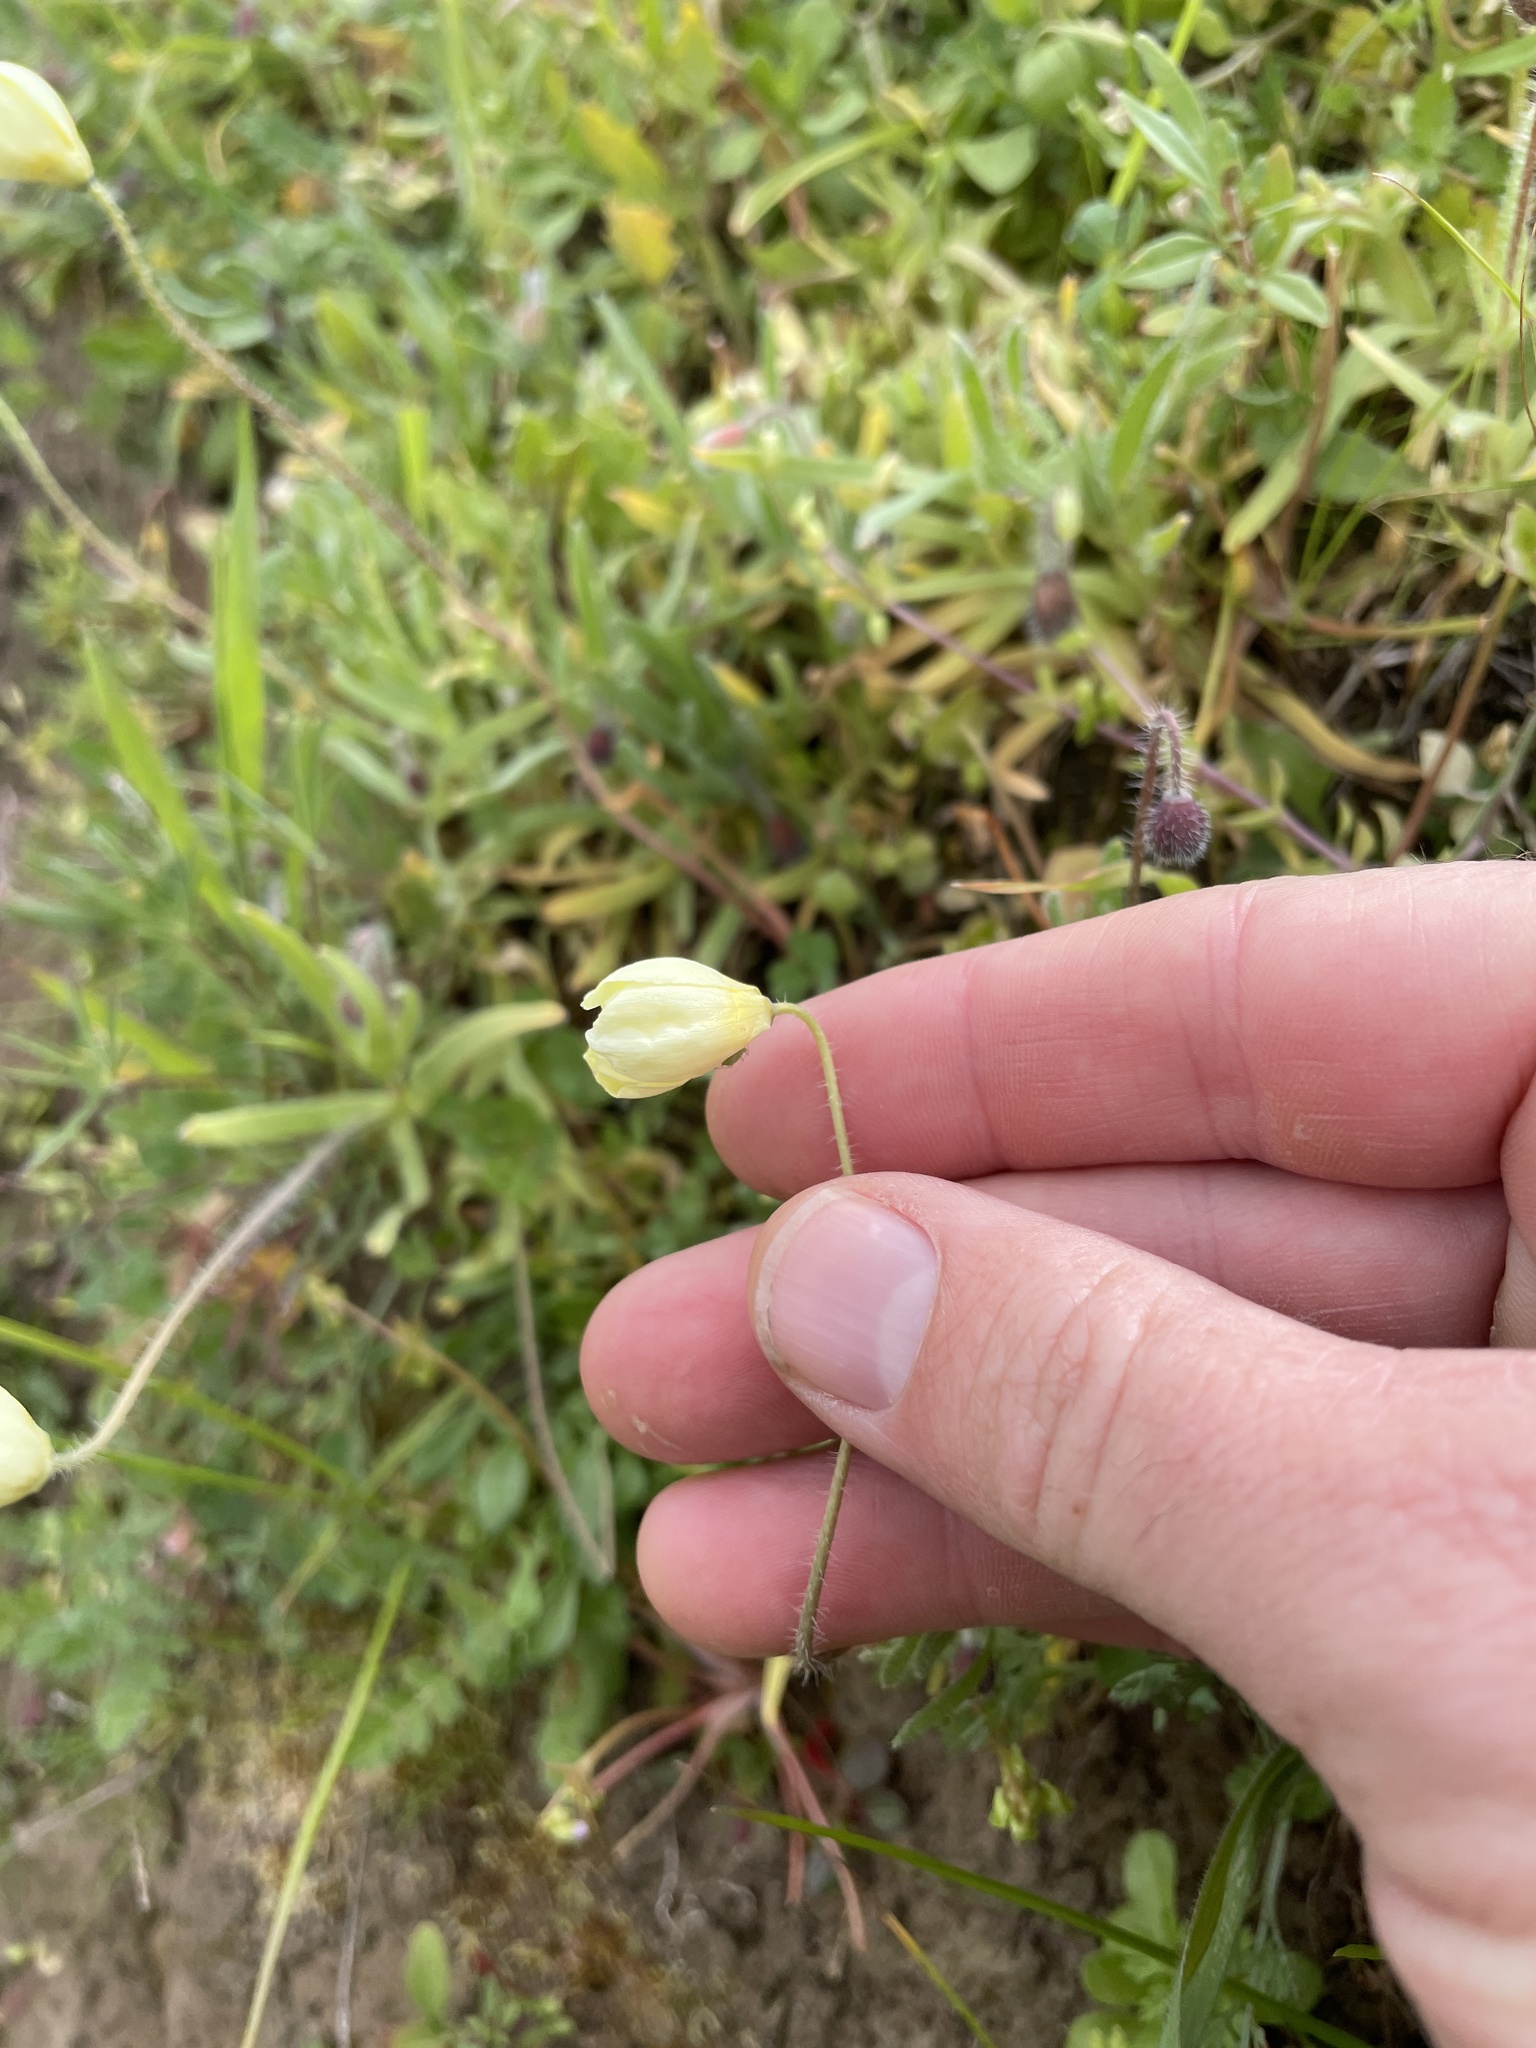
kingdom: Plantae
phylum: Tracheophyta
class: Magnoliopsida
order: Ranunculales
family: Papaveraceae
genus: Platystemon
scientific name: Platystemon californicus
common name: Cream-cups
